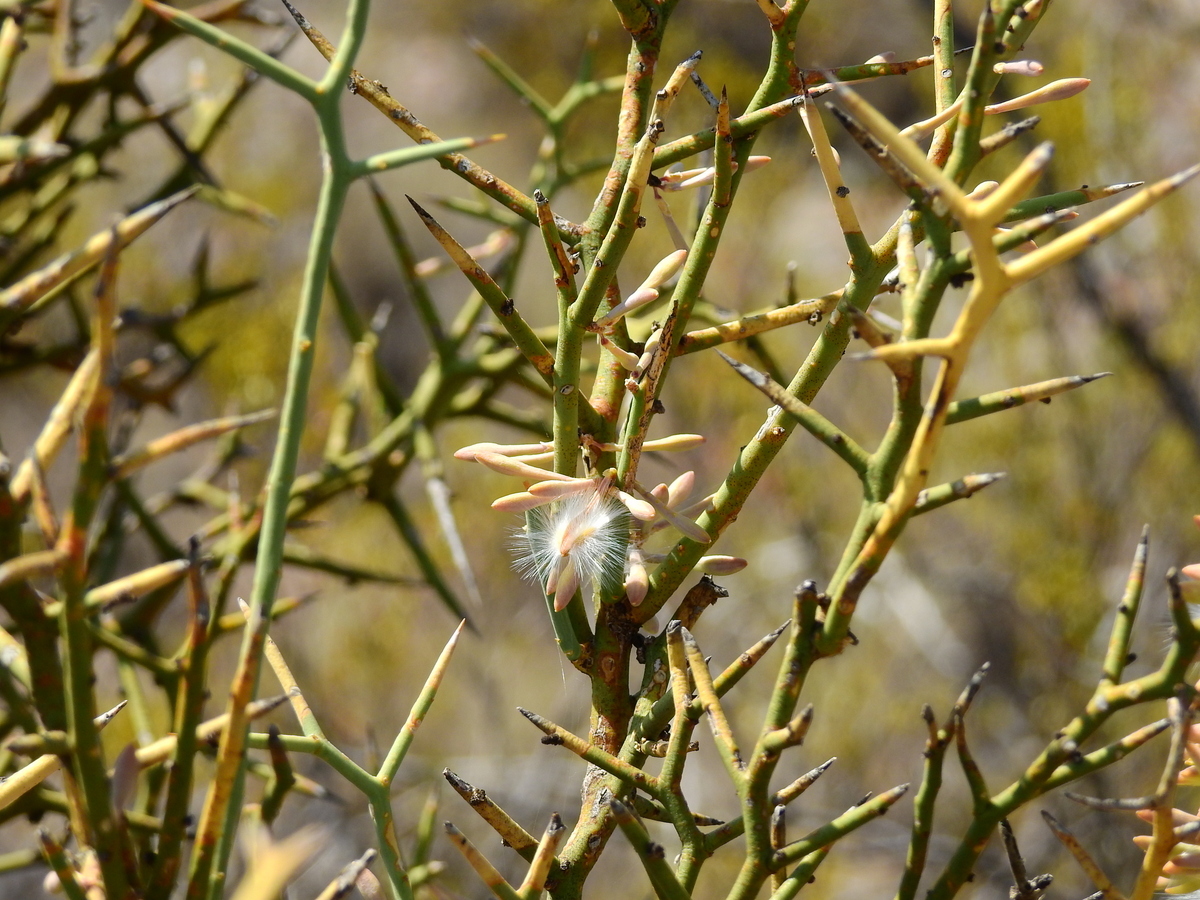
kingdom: Plantae
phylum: Tracheophyta
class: Magnoliopsida
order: Fabales
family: Polygalaceae
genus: Bredemeyera
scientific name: Bredemeyera colletioides
